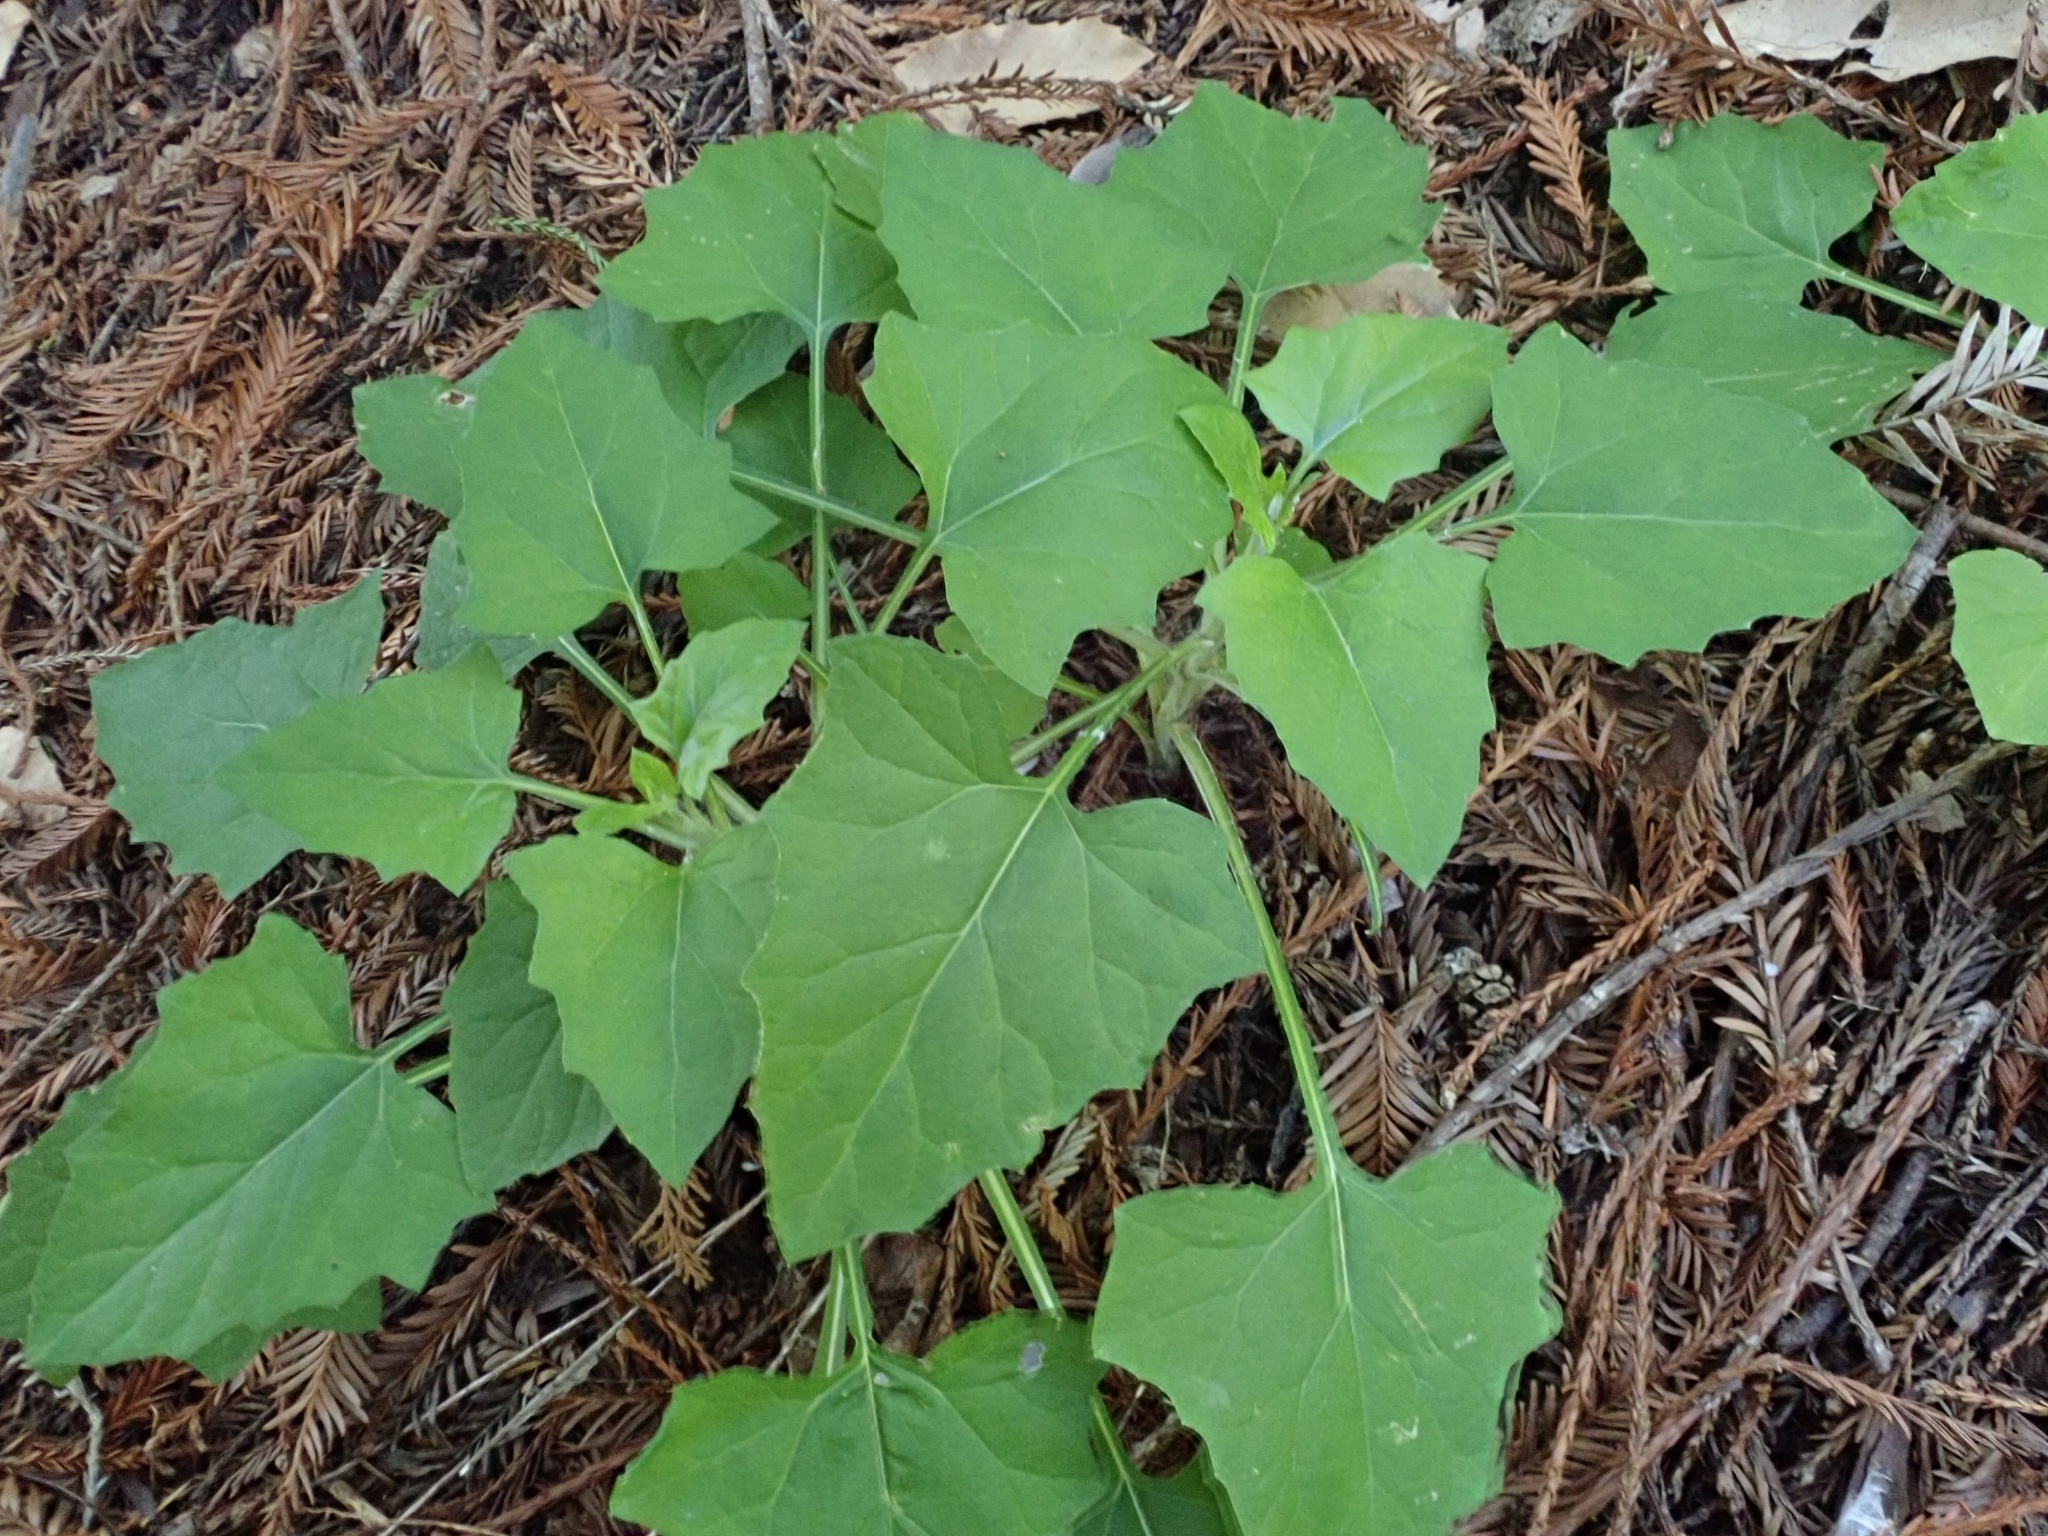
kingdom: Plantae
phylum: Tracheophyta
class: Magnoliopsida
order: Asterales
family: Asteraceae
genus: Adenocaulon
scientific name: Adenocaulon bicolor
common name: Trailplant
